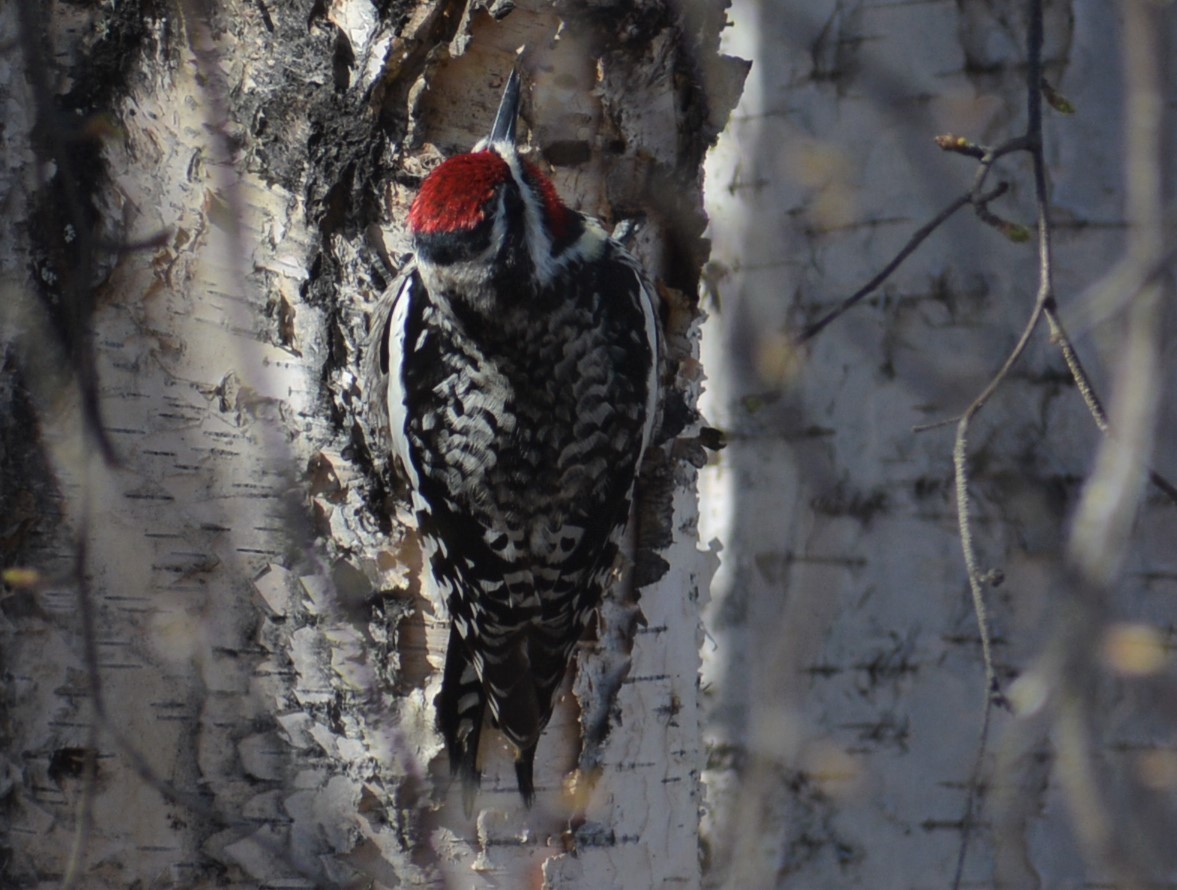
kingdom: Animalia
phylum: Chordata
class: Aves
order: Piciformes
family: Picidae
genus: Sphyrapicus
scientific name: Sphyrapicus varius
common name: Yellow-bellied sapsucker
